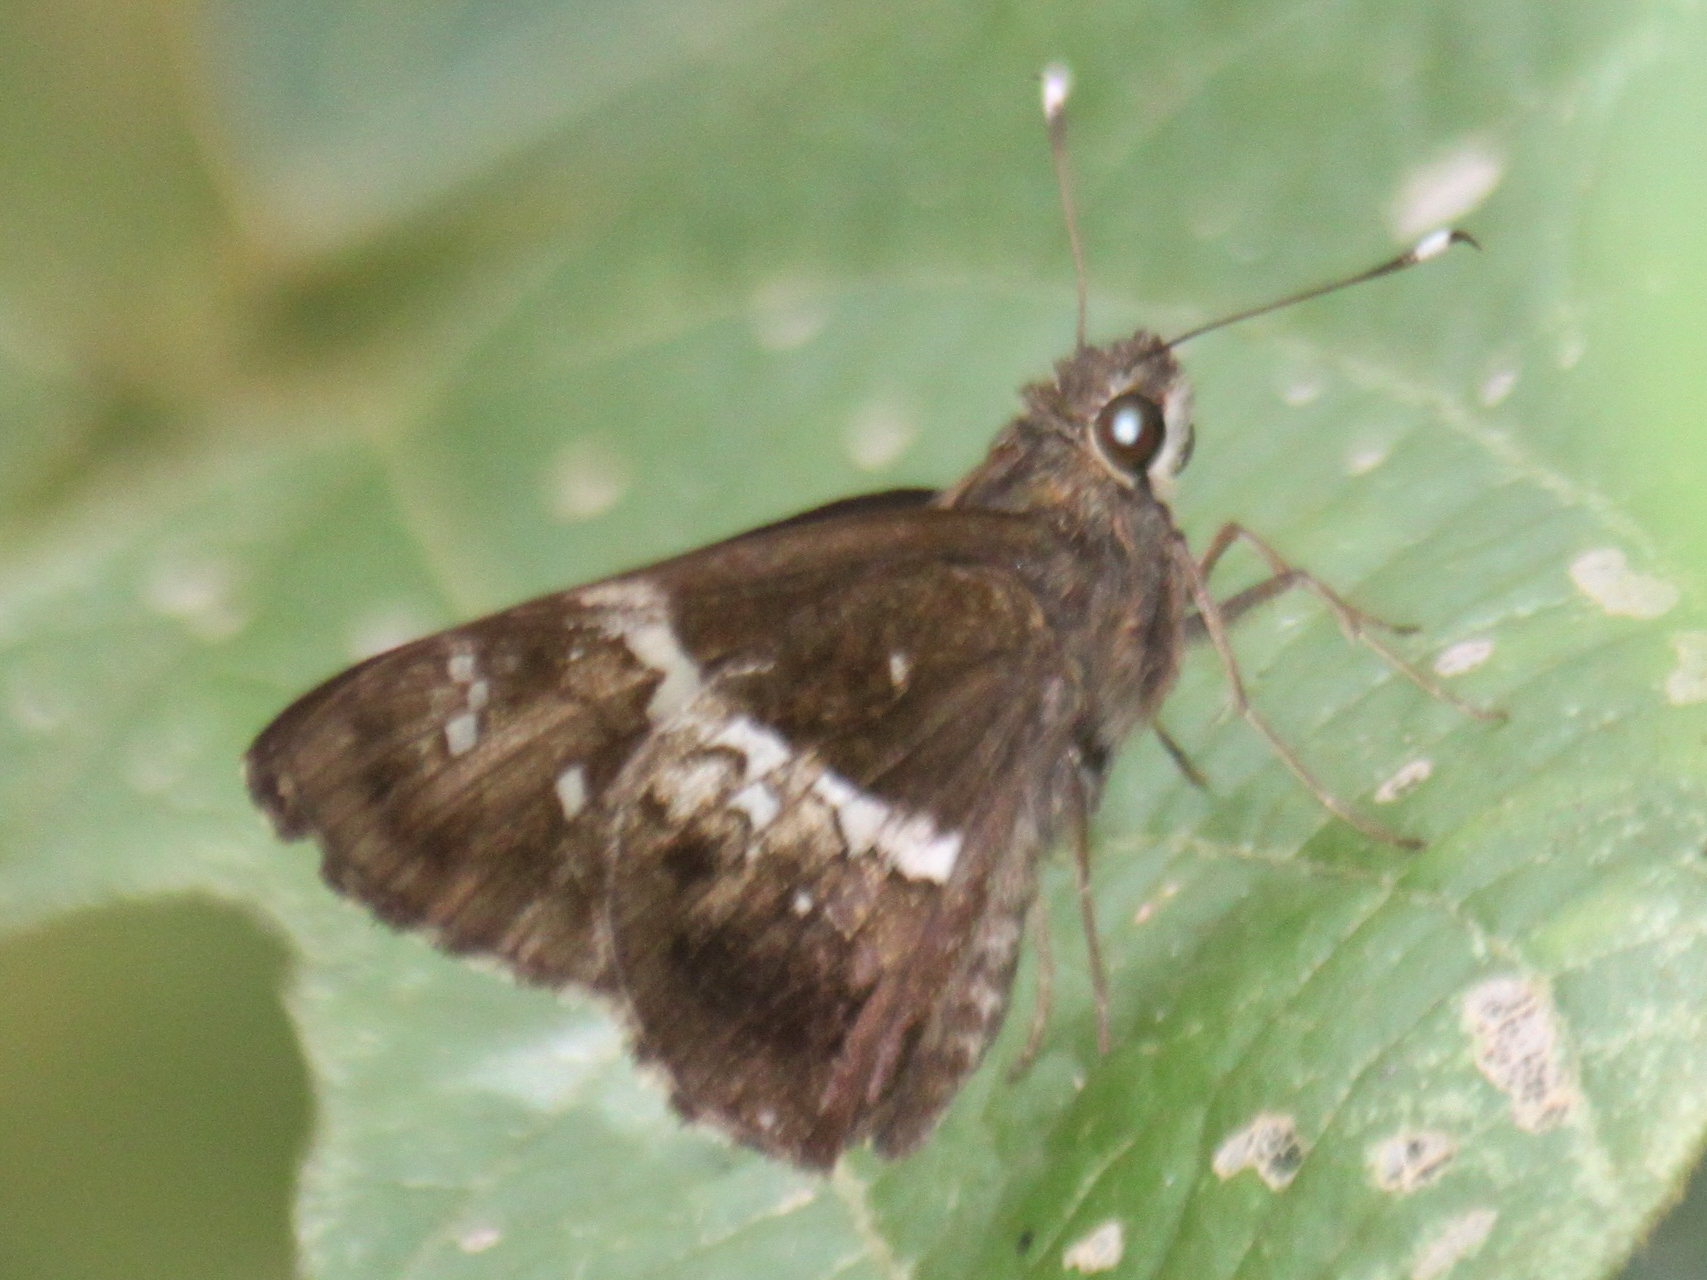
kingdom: Animalia
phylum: Arthropoda
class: Insecta
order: Lepidoptera
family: Hesperiidae
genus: Hyarotis
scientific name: Hyarotis adrastus
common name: Tree flitter
